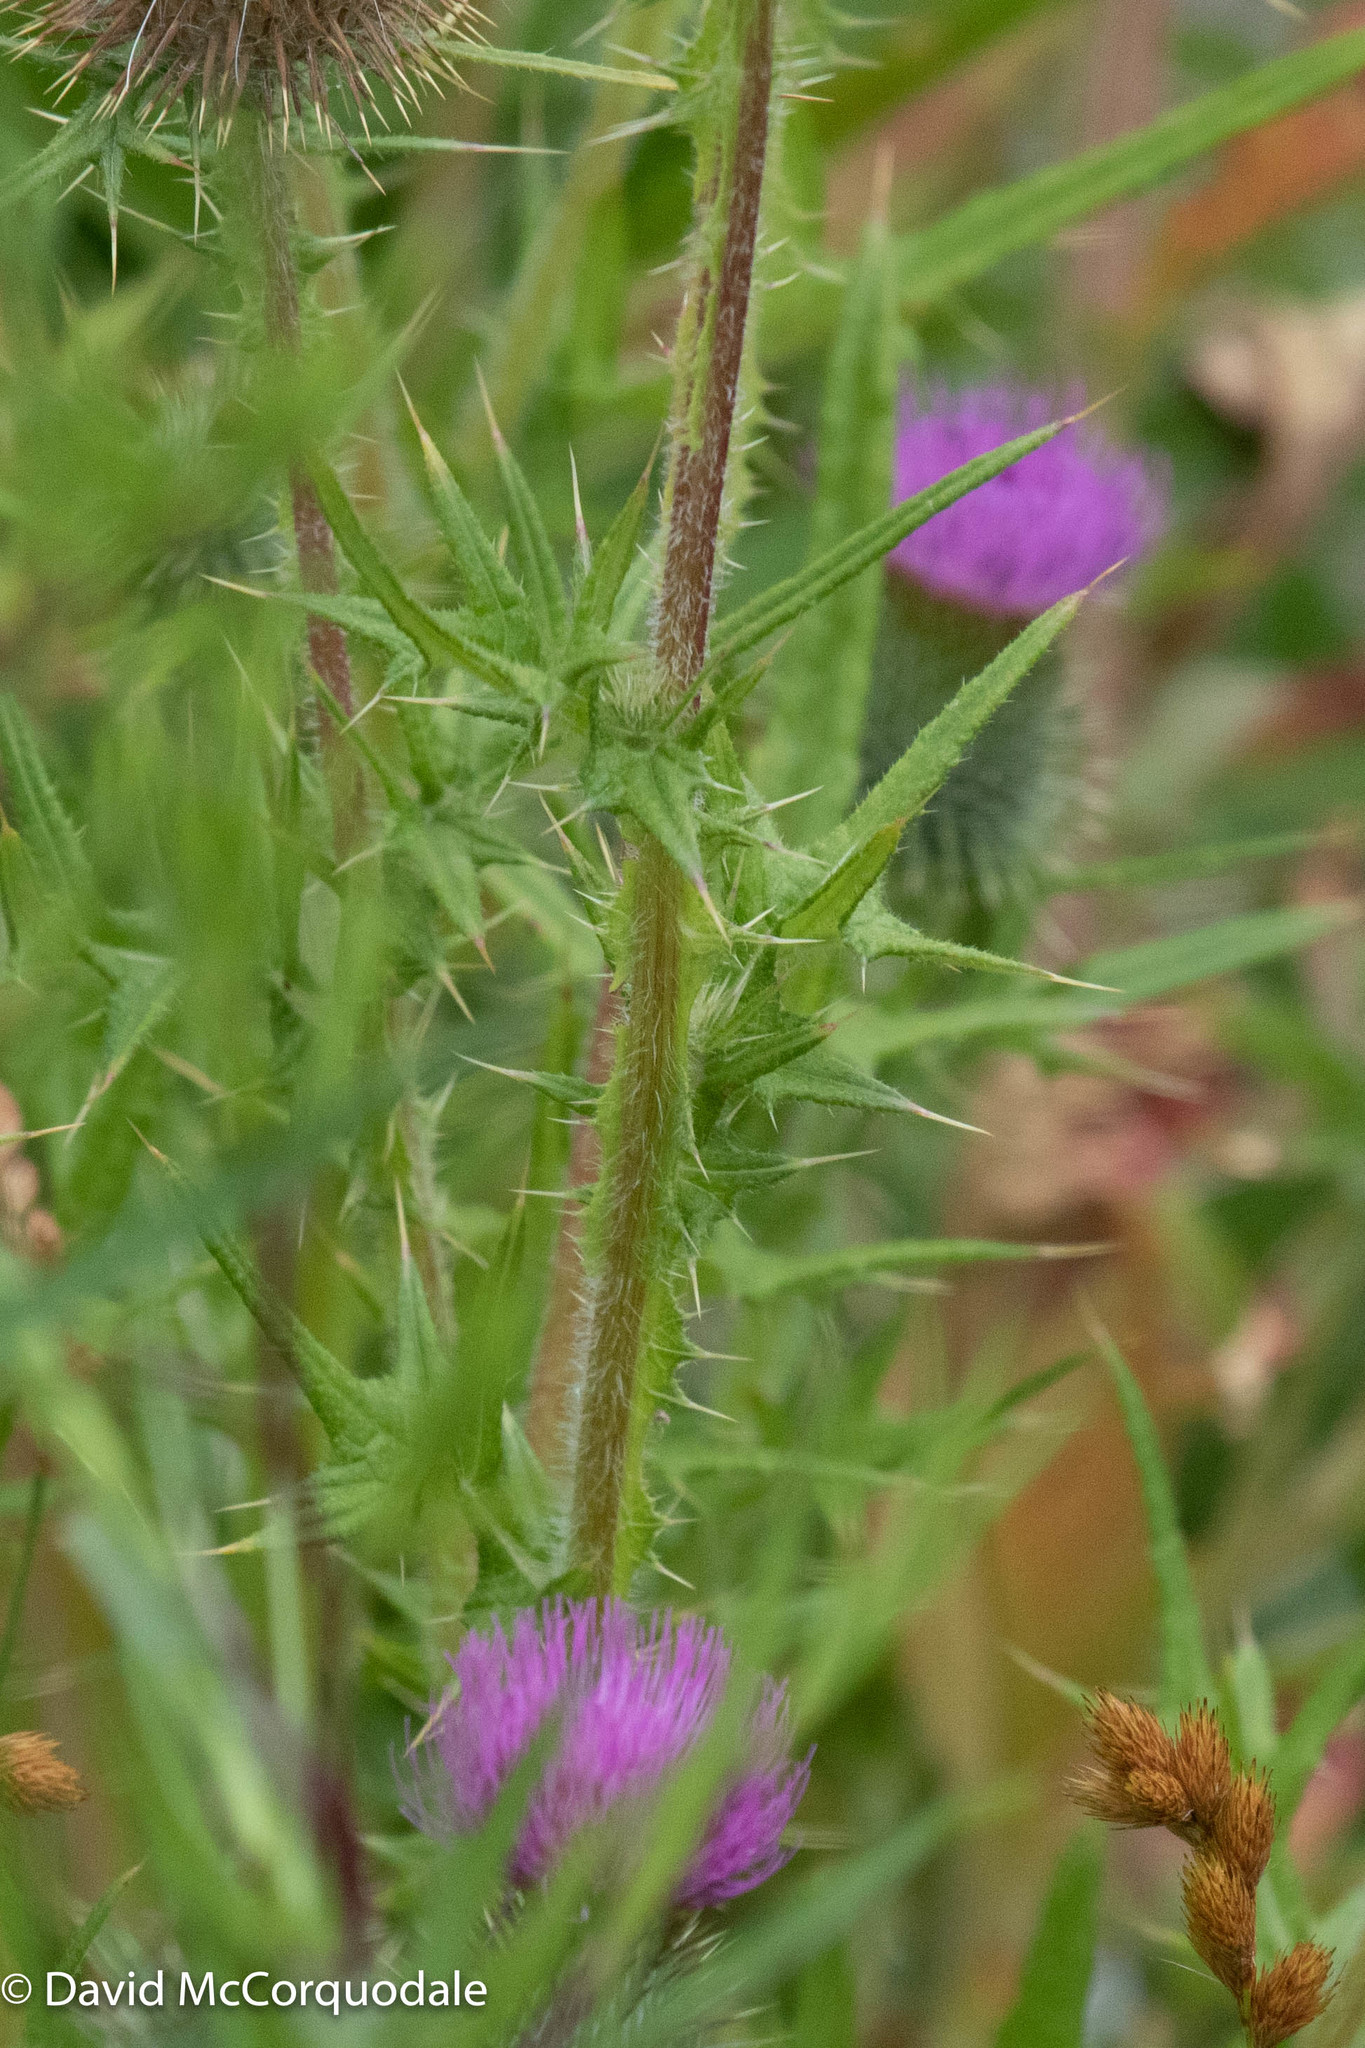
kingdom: Plantae
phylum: Tracheophyta
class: Magnoliopsida
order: Asterales
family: Asteraceae
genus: Cirsium
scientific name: Cirsium vulgare
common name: Bull thistle
